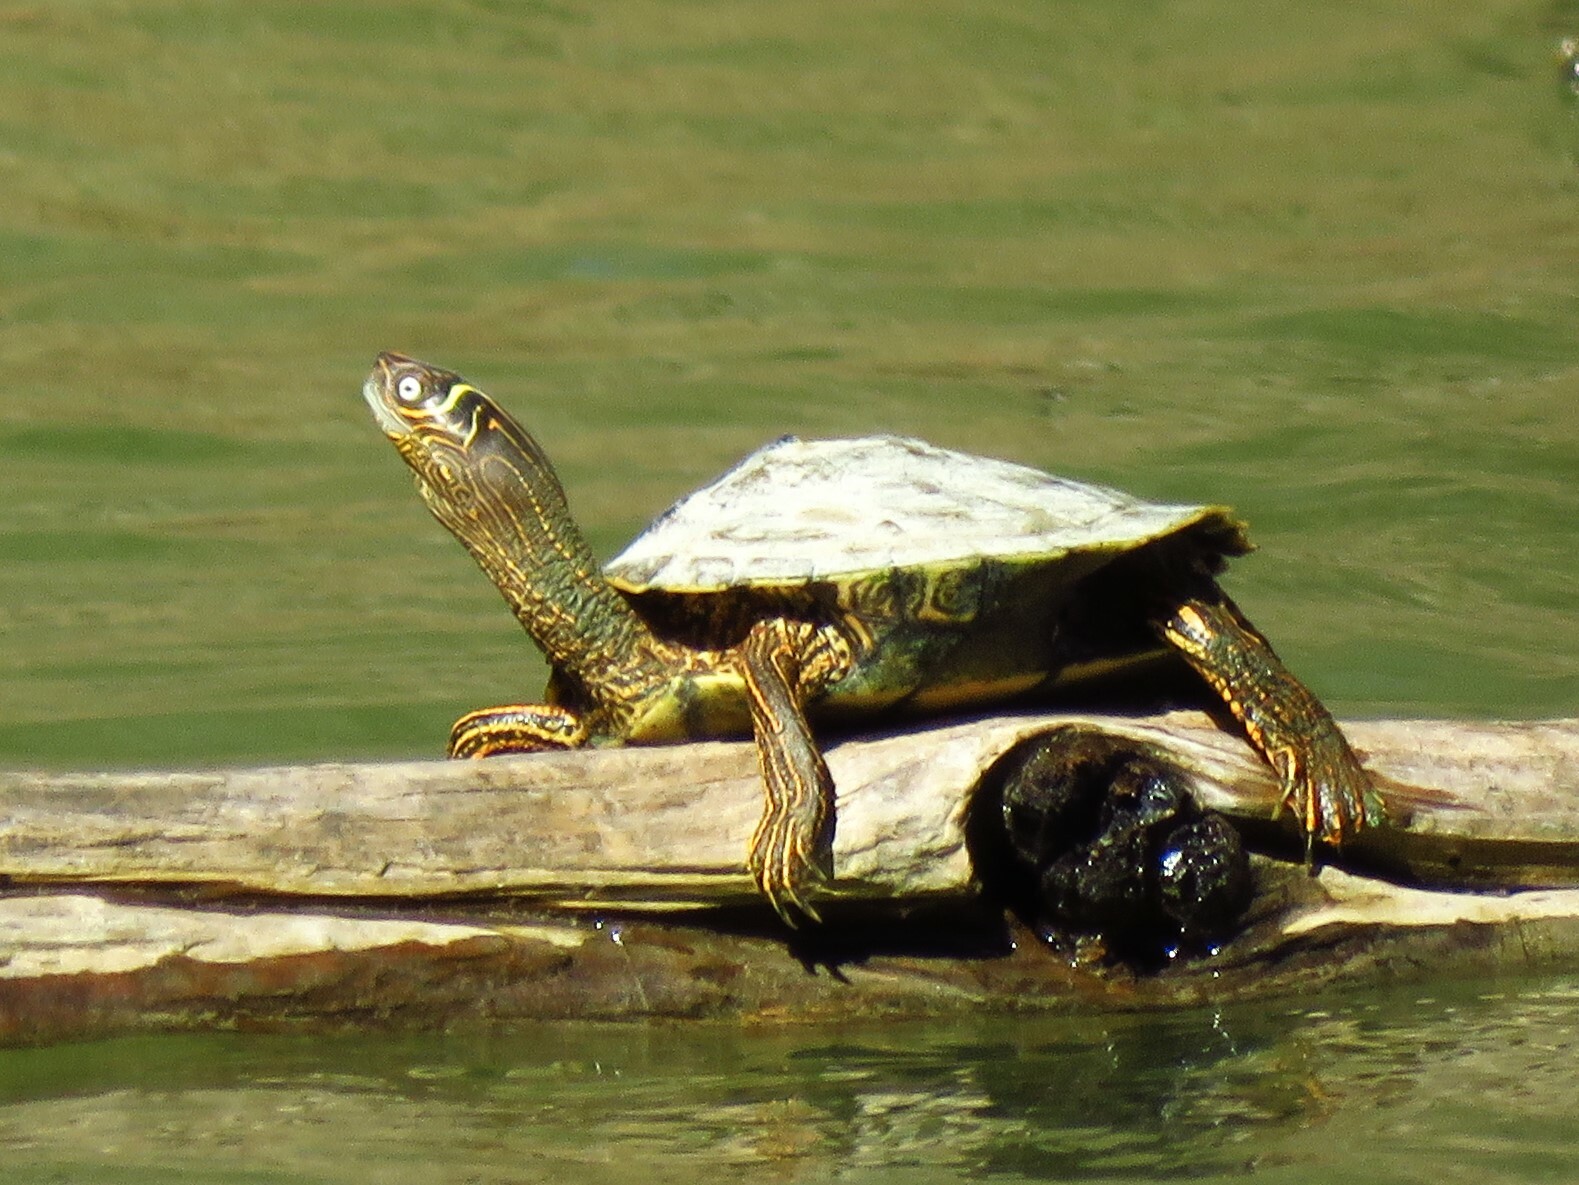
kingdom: Animalia
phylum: Chordata
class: Testudines
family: Emydidae
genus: Graptemys
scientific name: Graptemys pseudogeographica
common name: False map turtle
